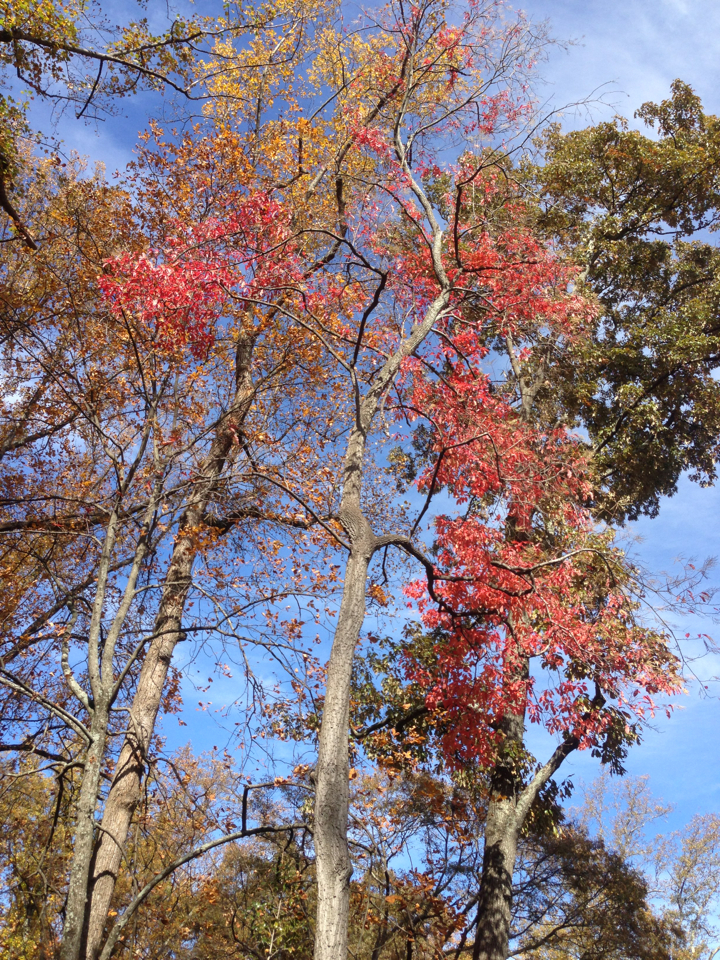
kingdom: Plantae
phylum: Tracheophyta
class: Magnoliopsida
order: Ericales
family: Ericaceae
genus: Oxydendrum
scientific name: Oxydendrum arboreum
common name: Sourwood
